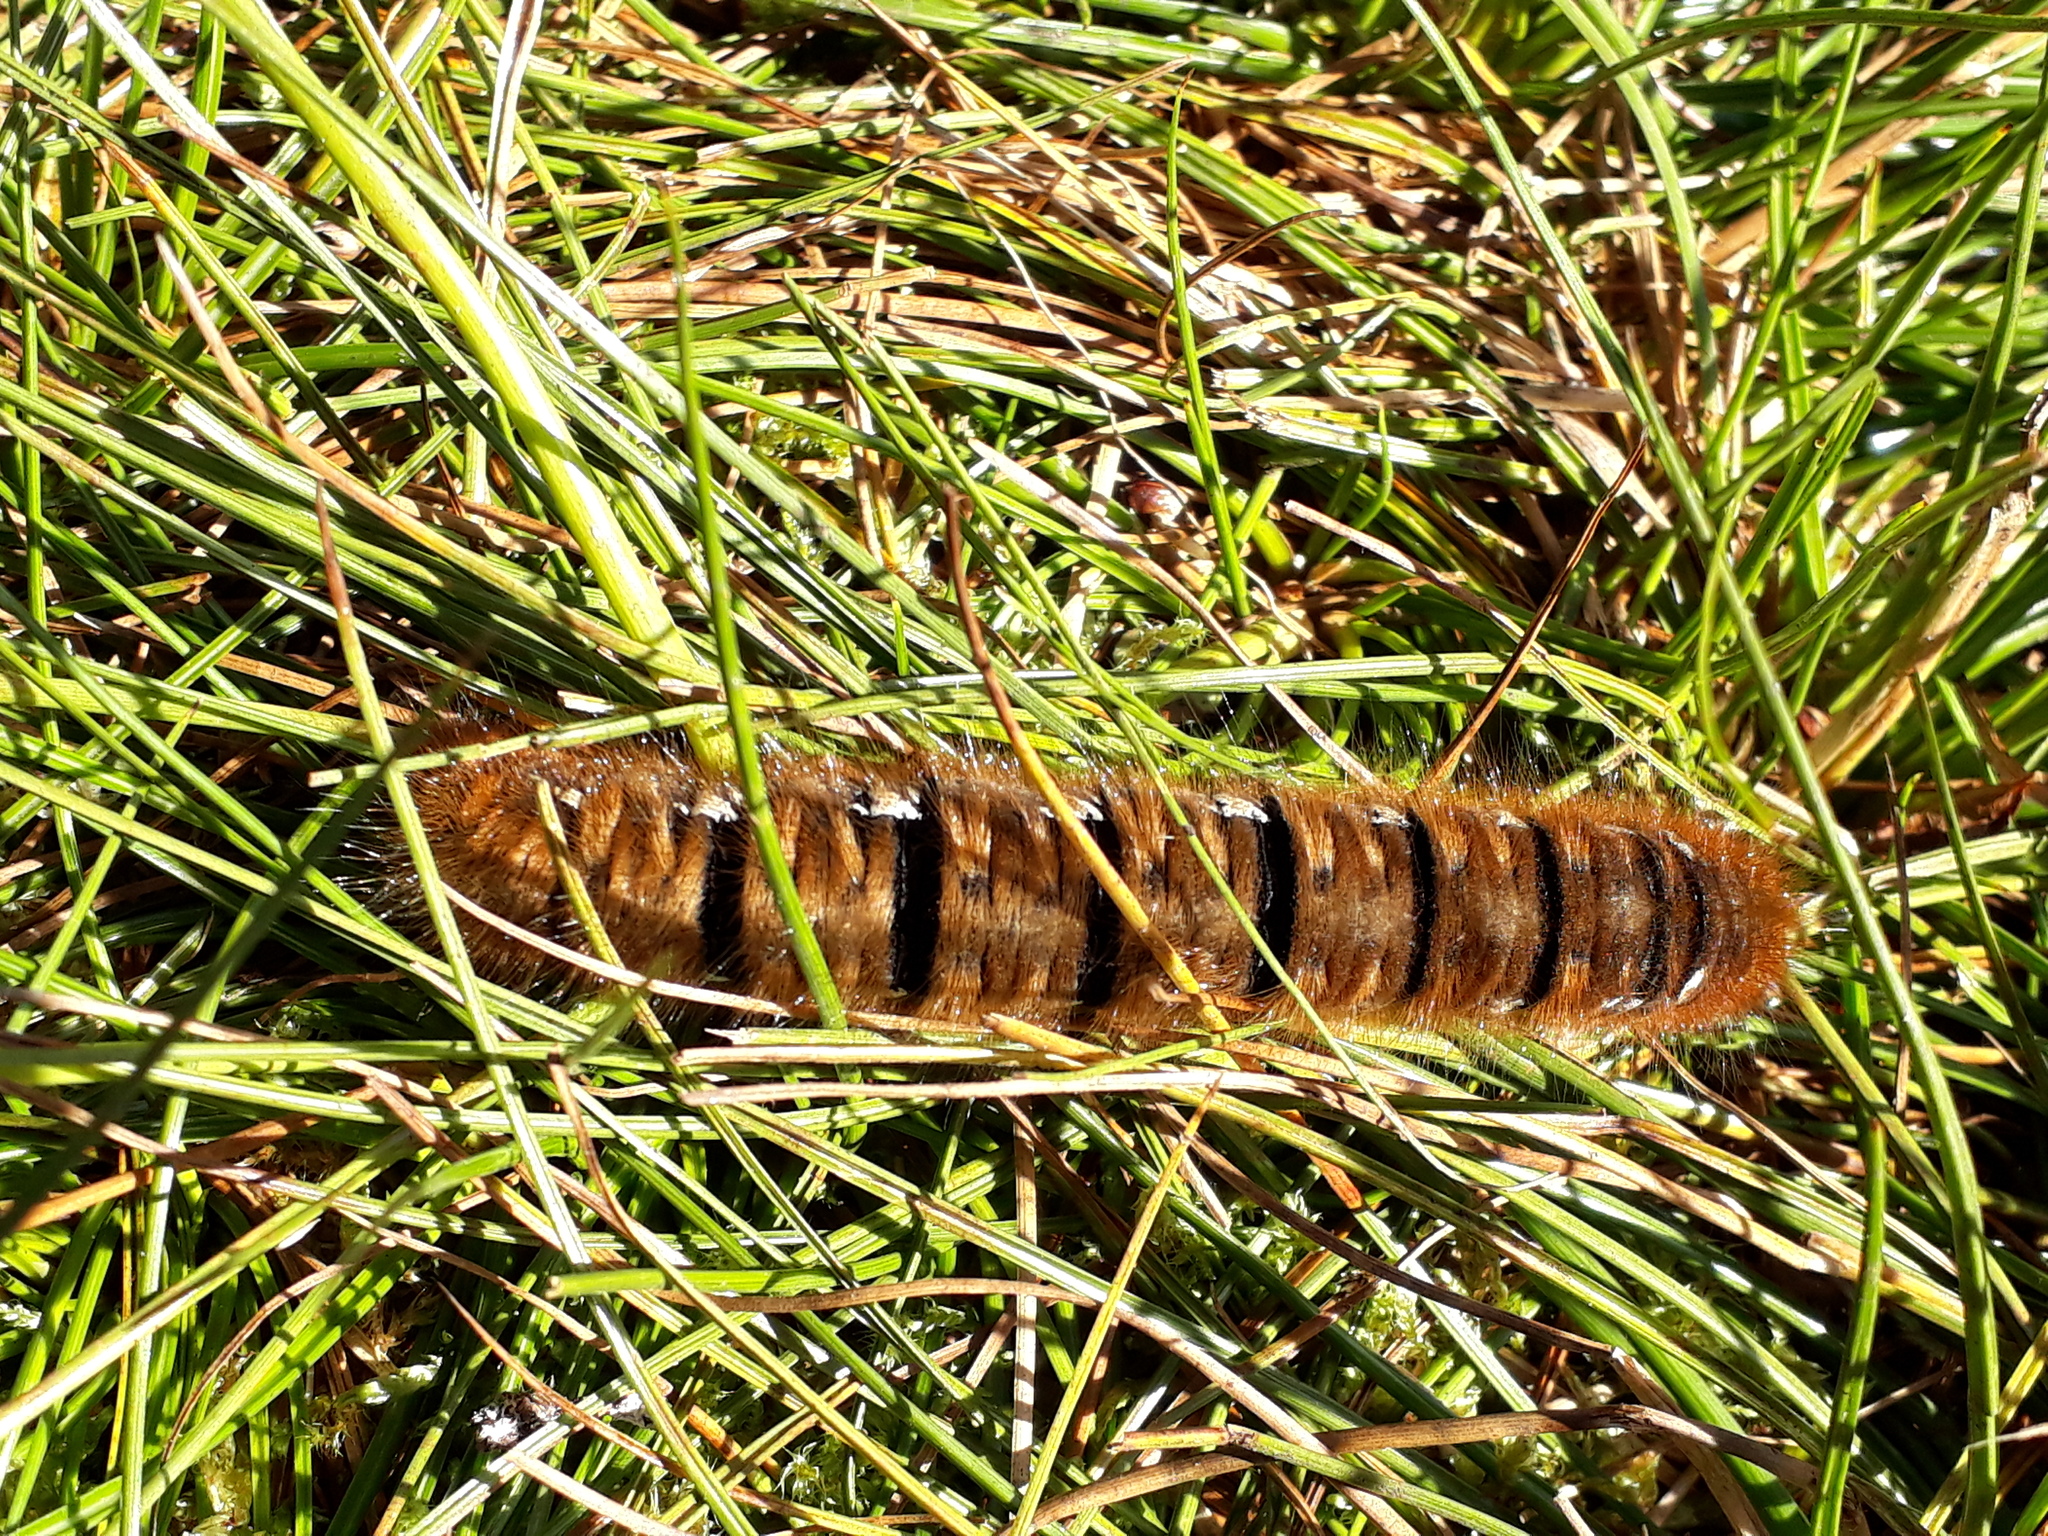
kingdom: Animalia
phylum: Arthropoda
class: Insecta
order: Lepidoptera
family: Lasiocampidae
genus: Lasiocampa
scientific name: Lasiocampa quercus
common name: Oak eggar
